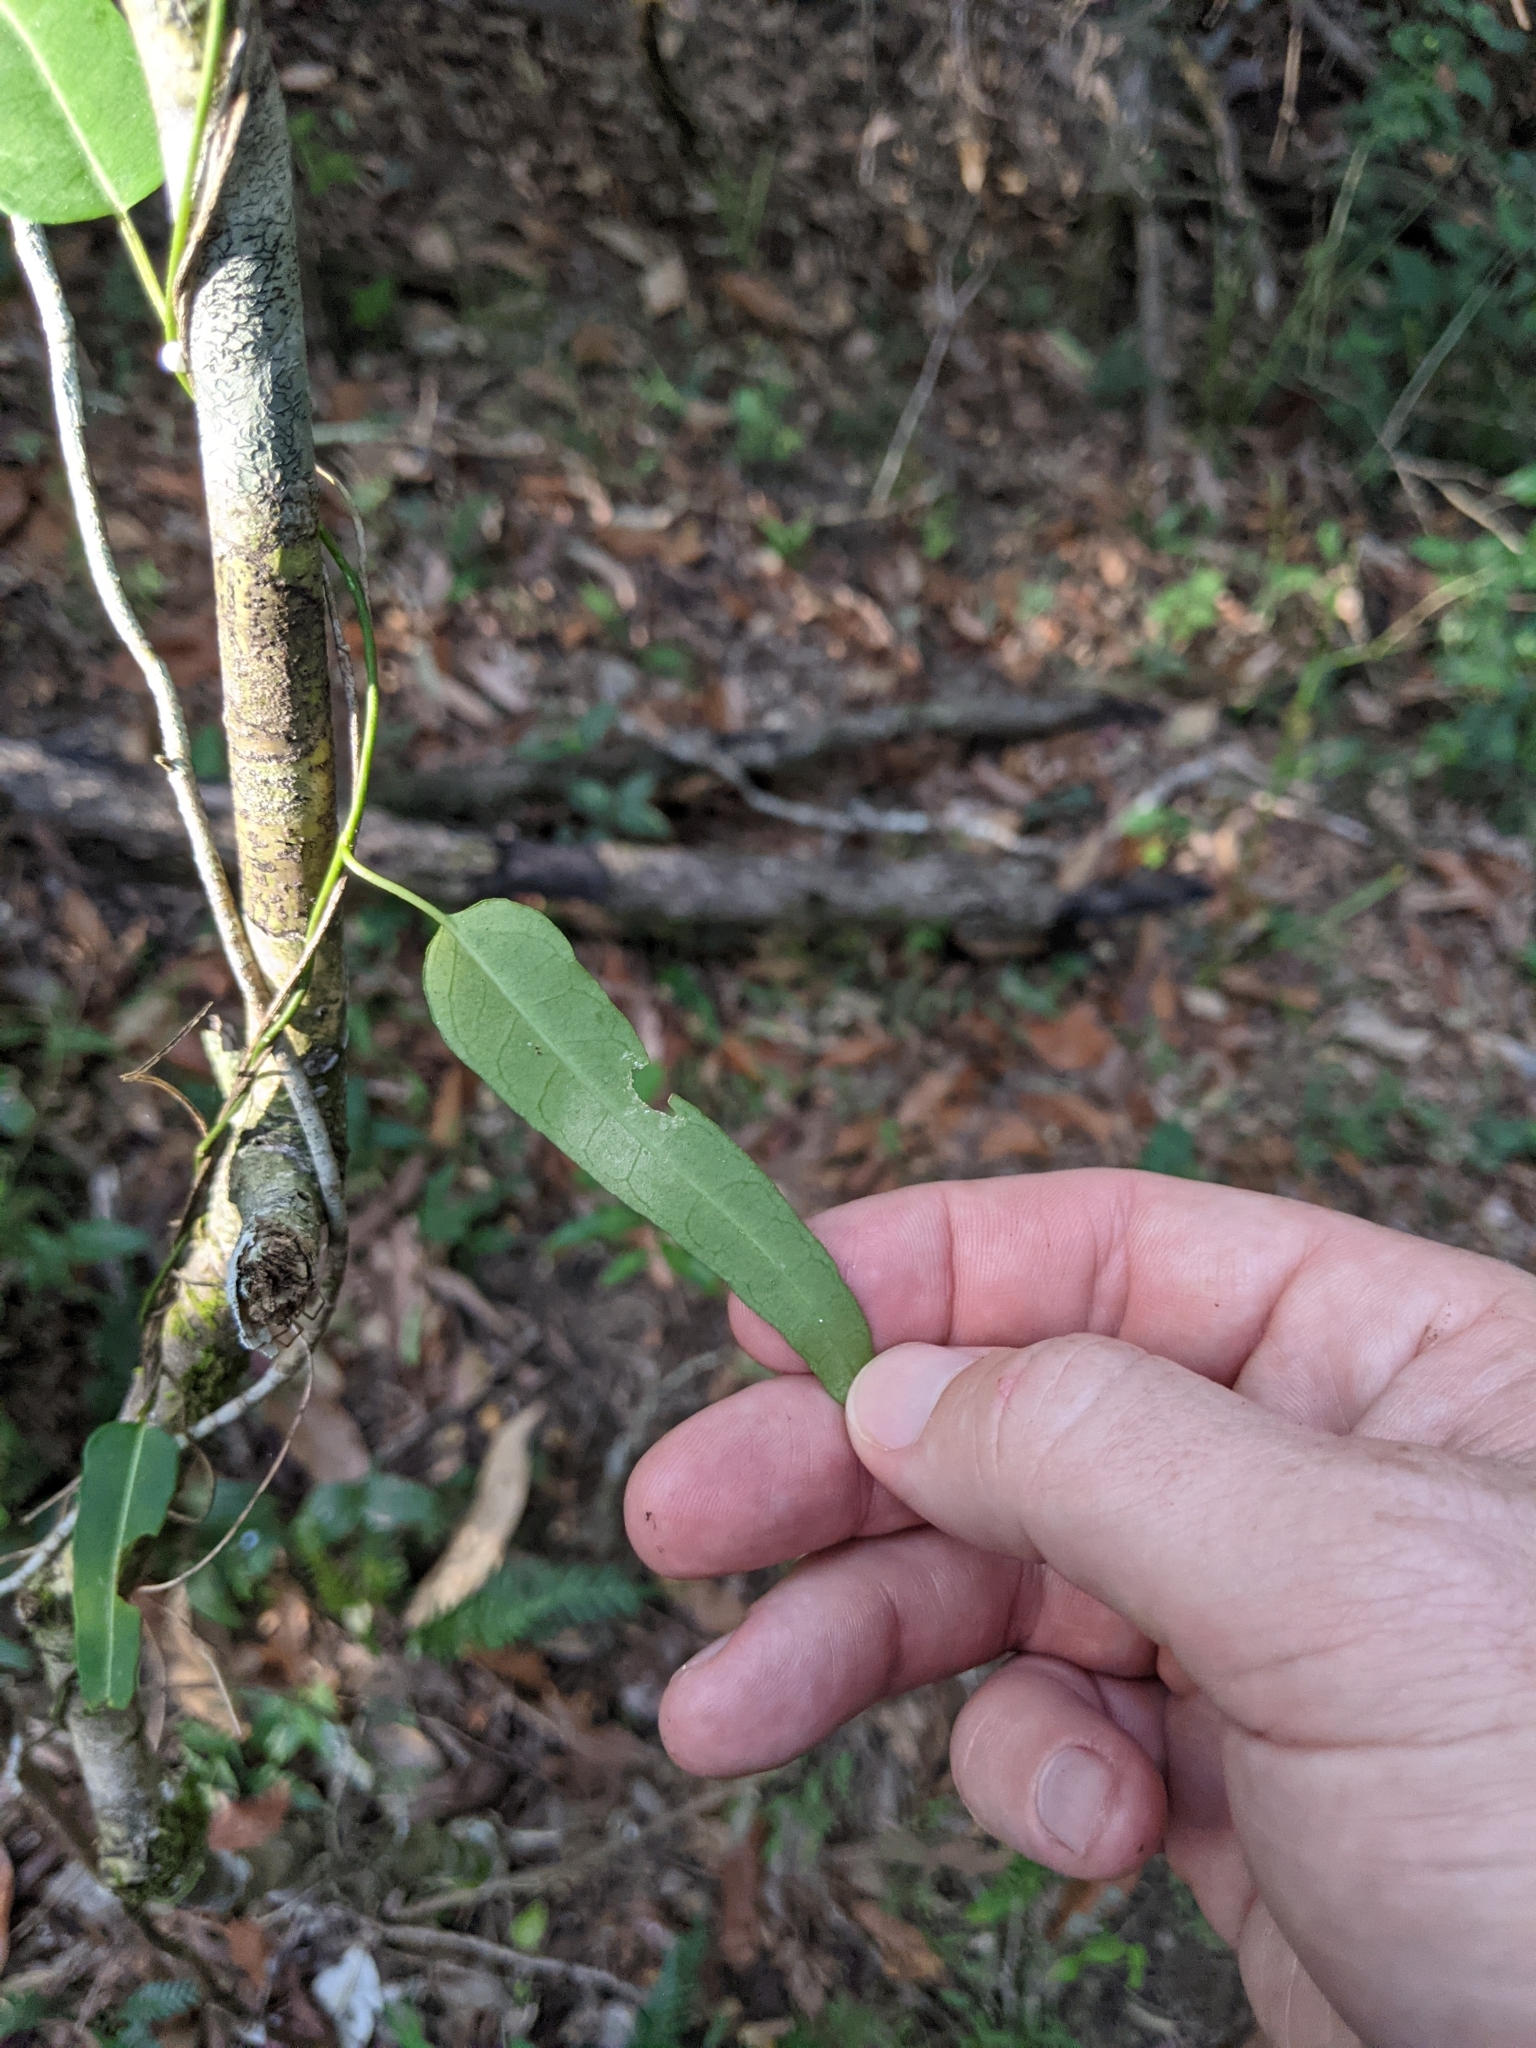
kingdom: Plantae
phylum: Tracheophyta
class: Magnoliopsida
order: Gentianales
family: Apocynaceae
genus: Leichhardtia
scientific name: Leichhardtia coronata
